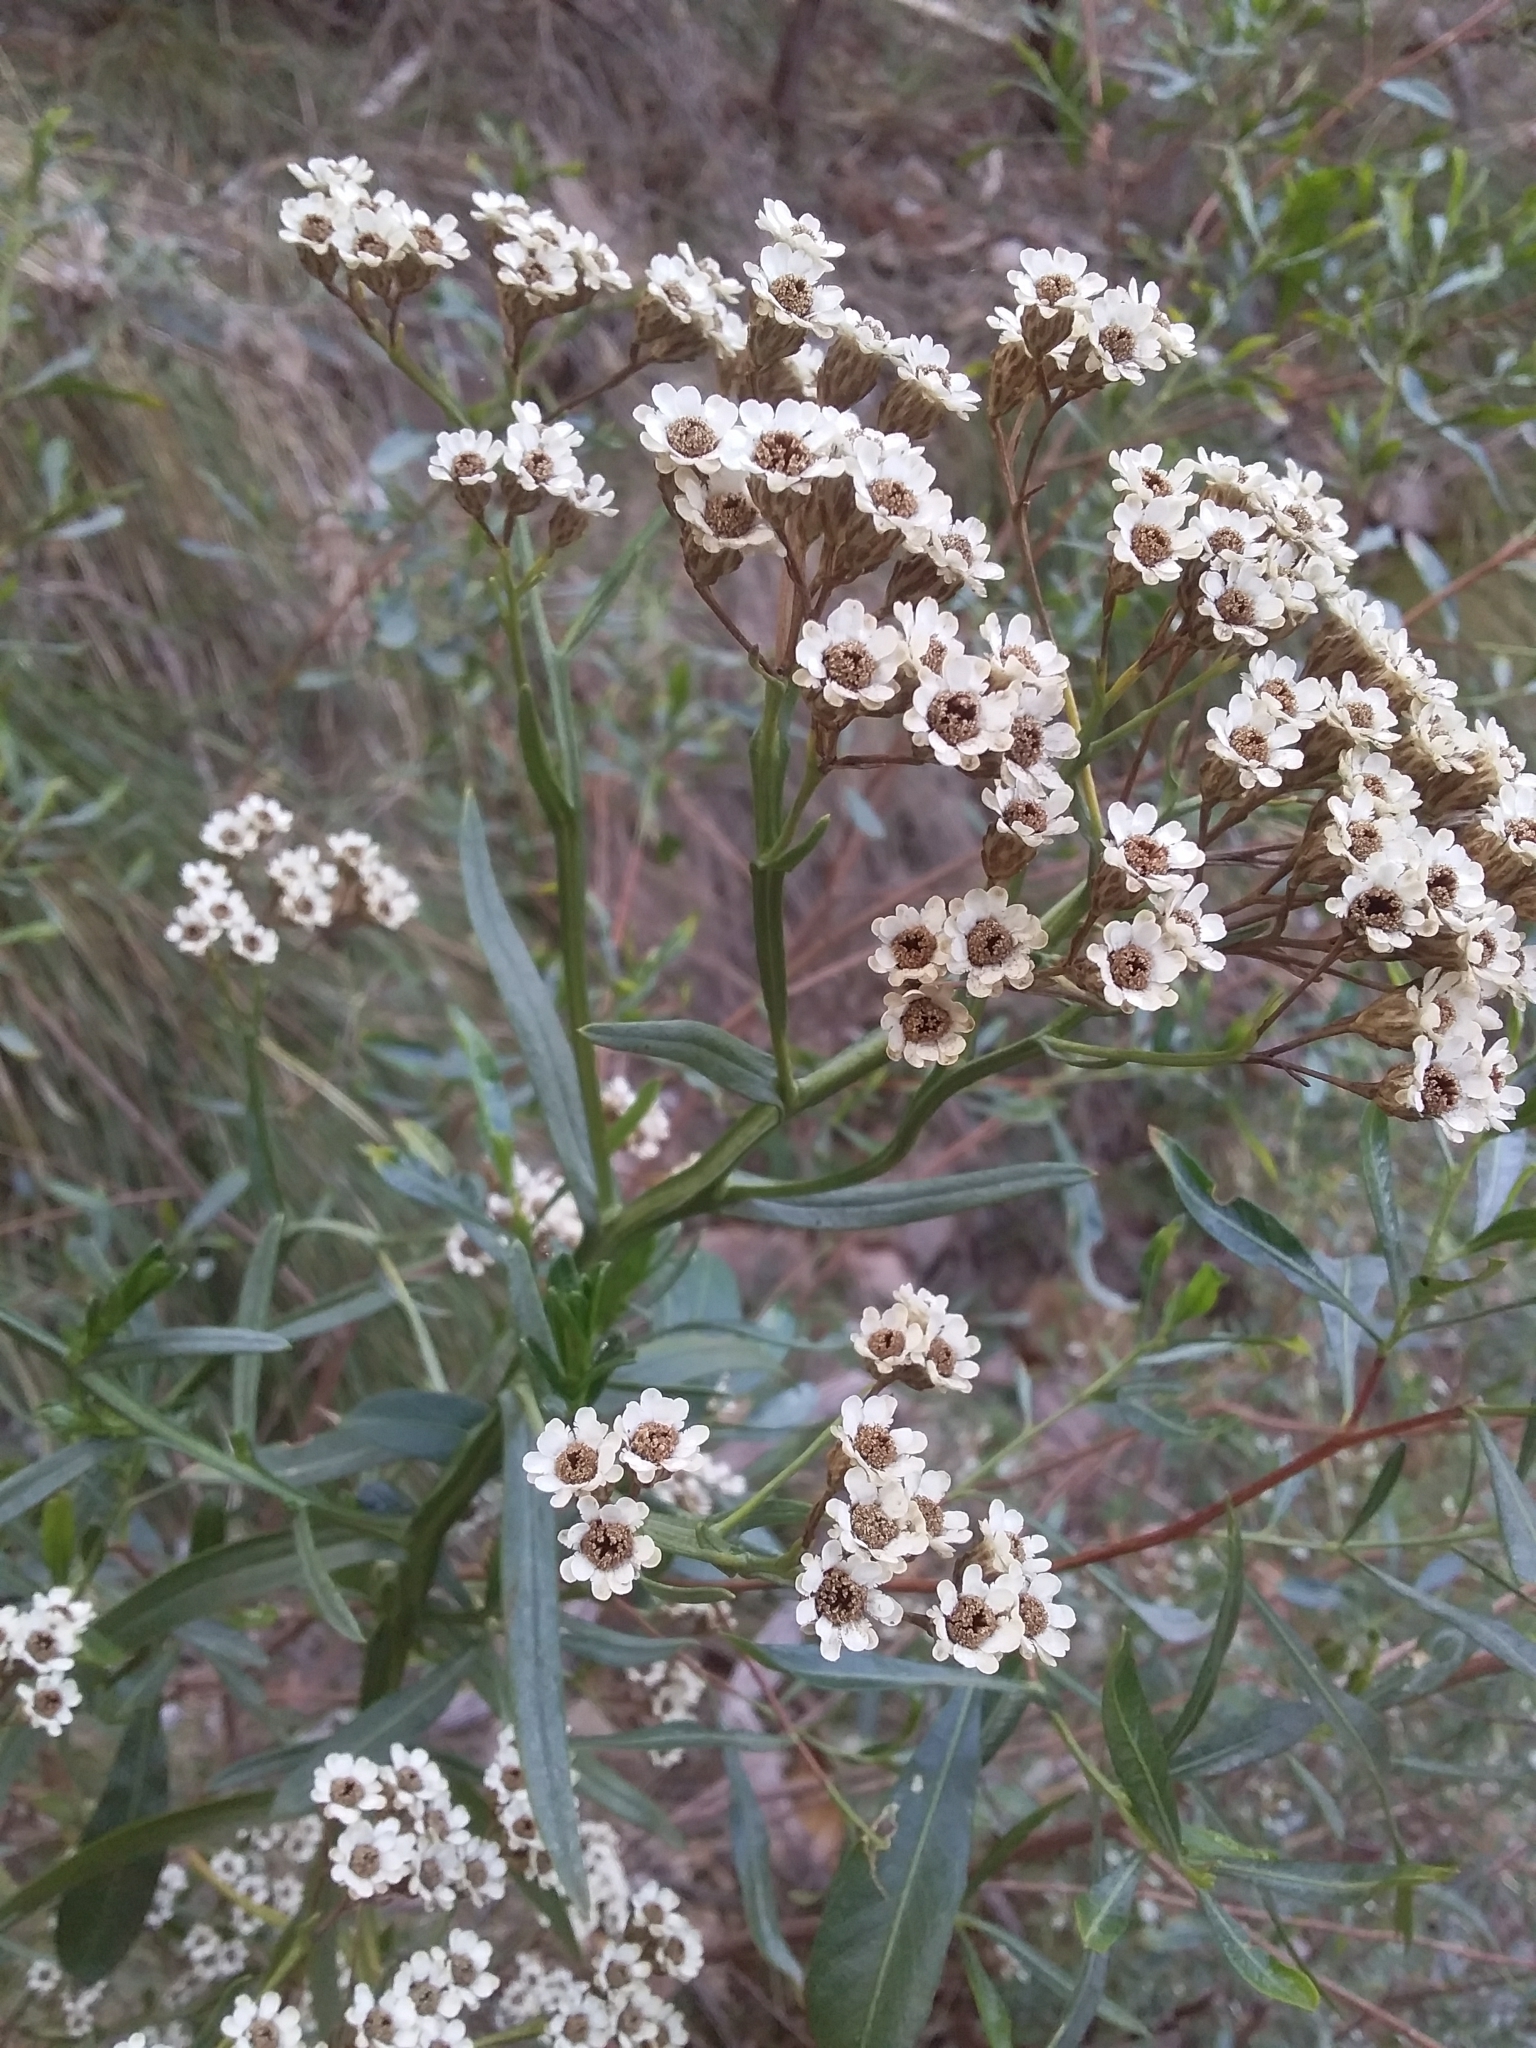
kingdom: Plantae
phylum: Tracheophyta
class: Magnoliopsida
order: Asterales
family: Asteraceae
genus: Ixodia
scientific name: Ixodia achillaeoides
